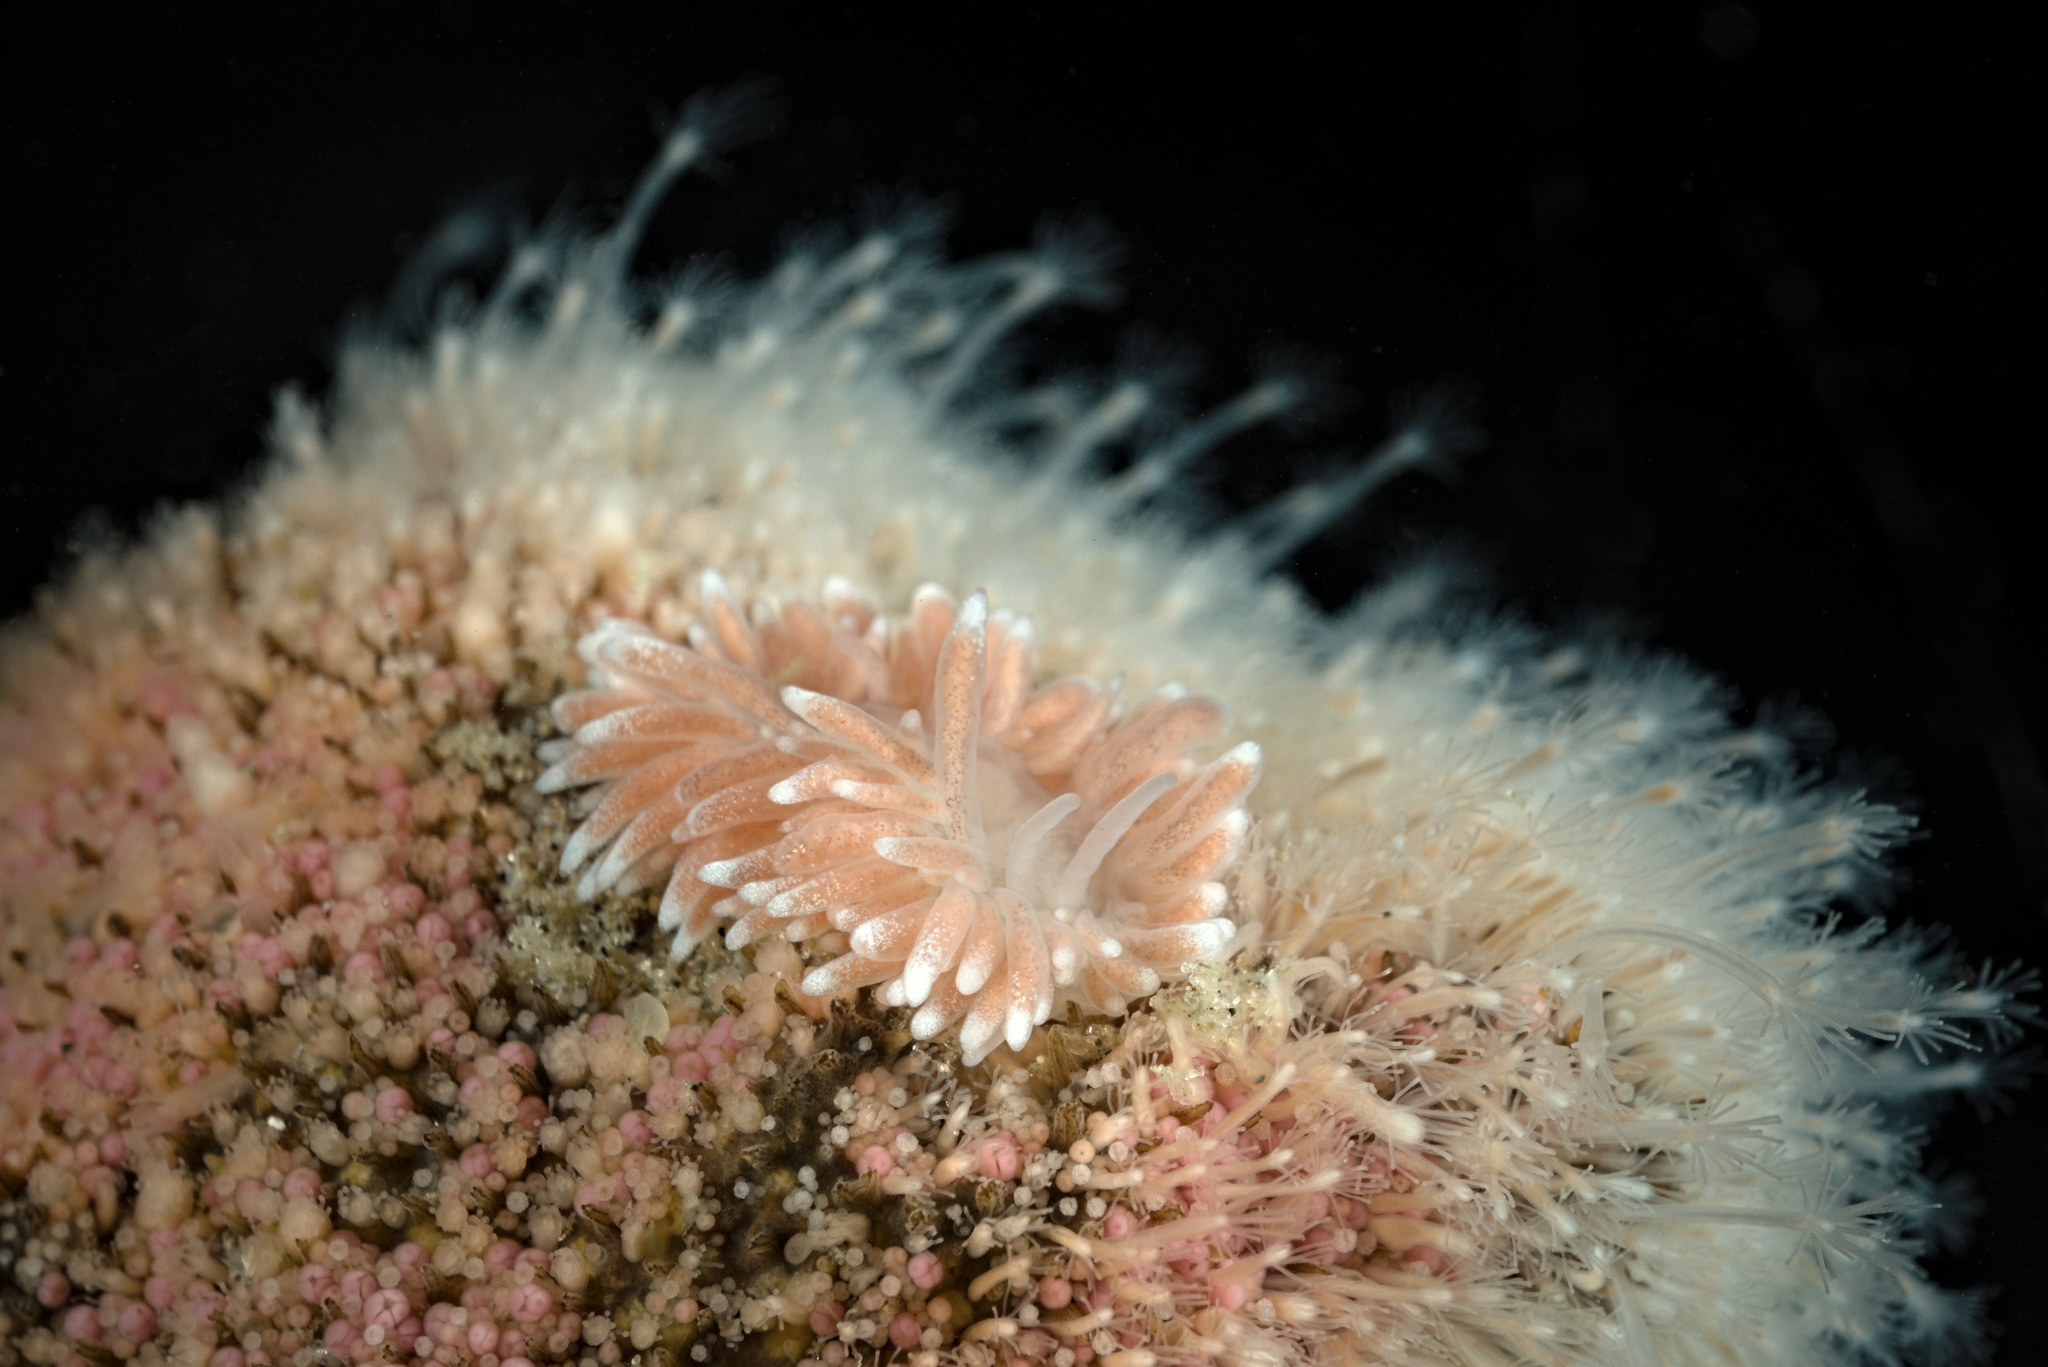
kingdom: Animalia
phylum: Mollusca
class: Gastropoda
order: Nudibranchia
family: Cuthonidae
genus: Cuthona
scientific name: Cuthona nana
